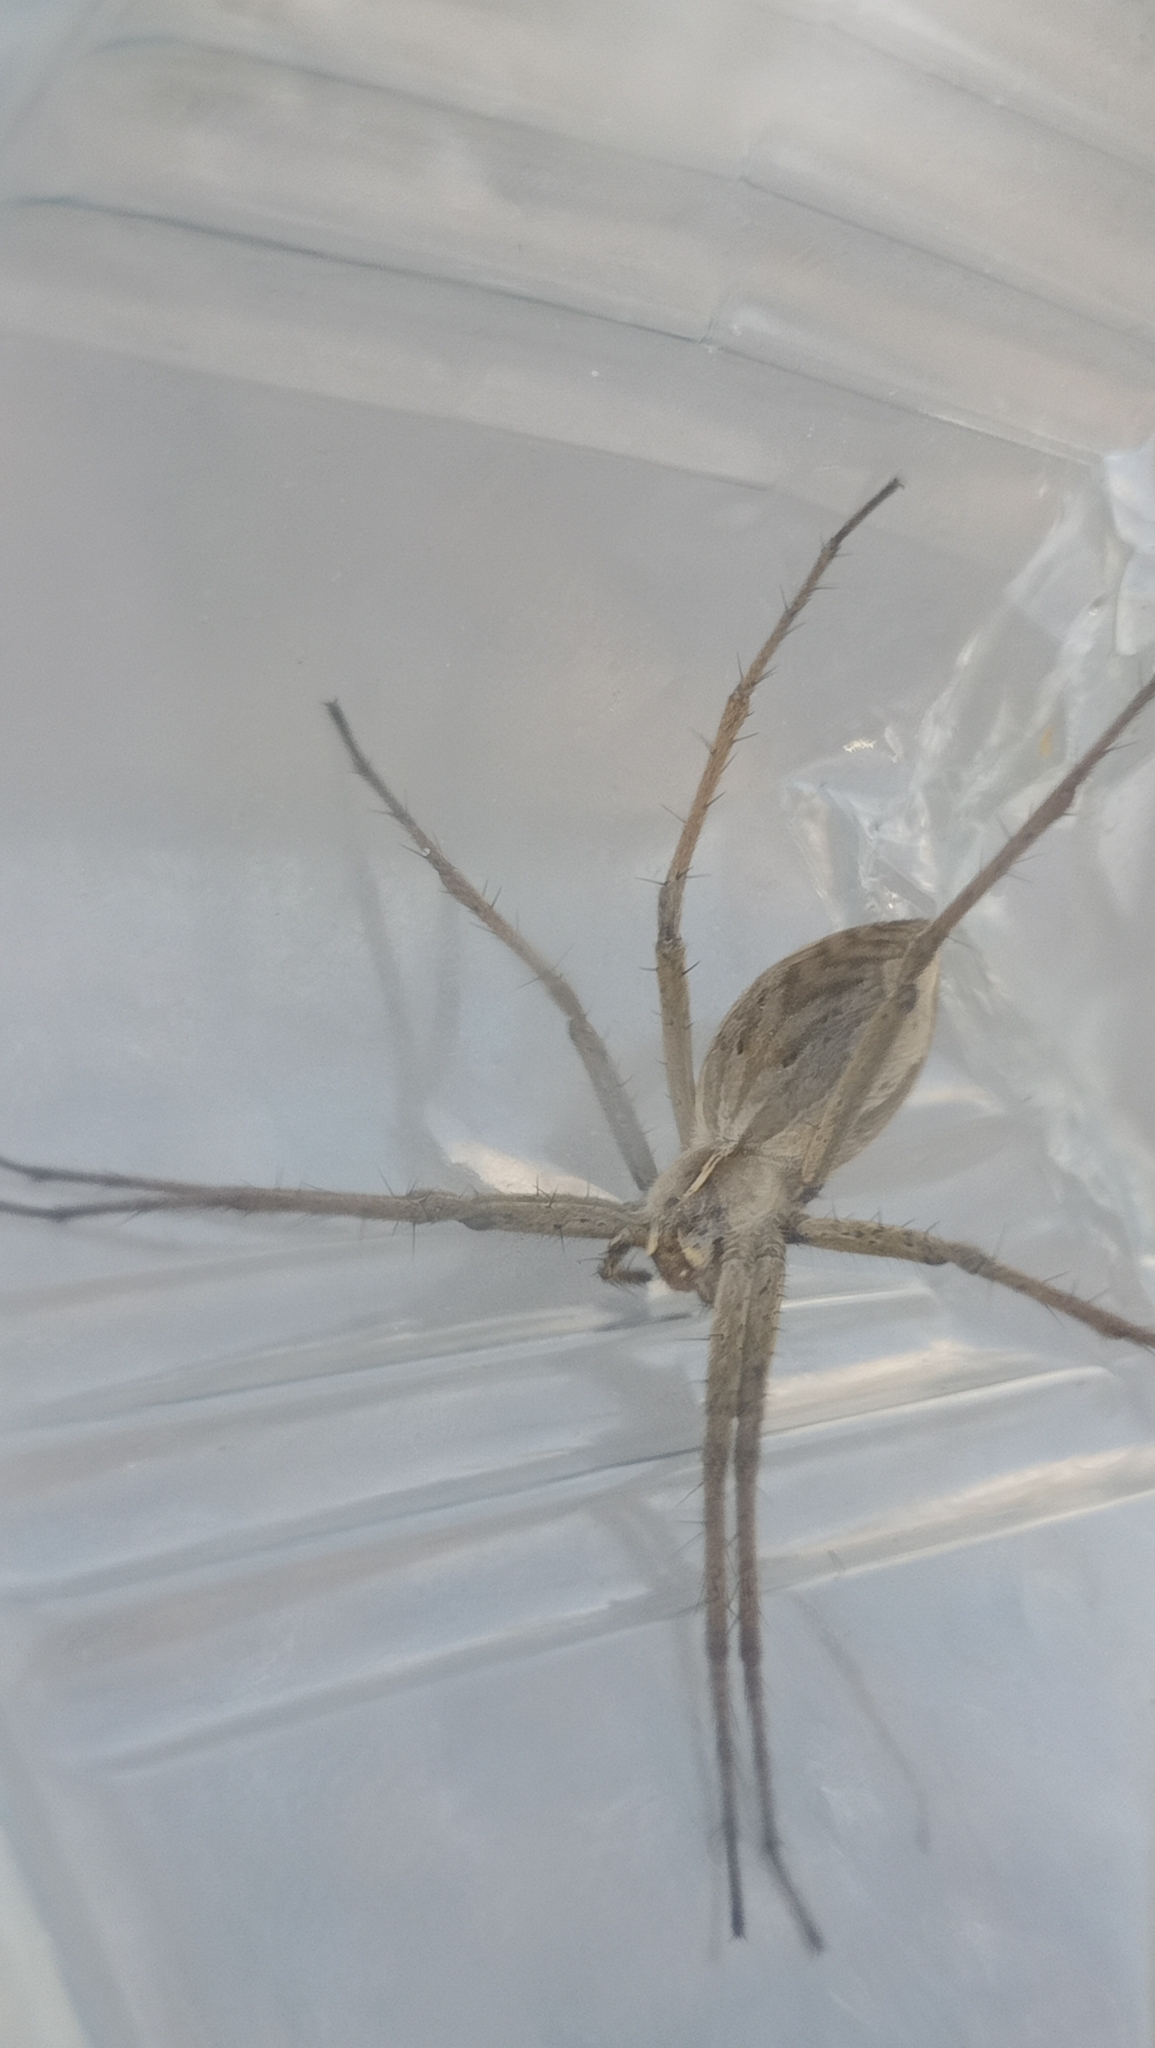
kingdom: Animalia
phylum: Arthropoda
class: Arachnida
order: Araneae
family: Pisauridae
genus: Pisaura
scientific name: Pisaura mirabilis
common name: Tent spider
